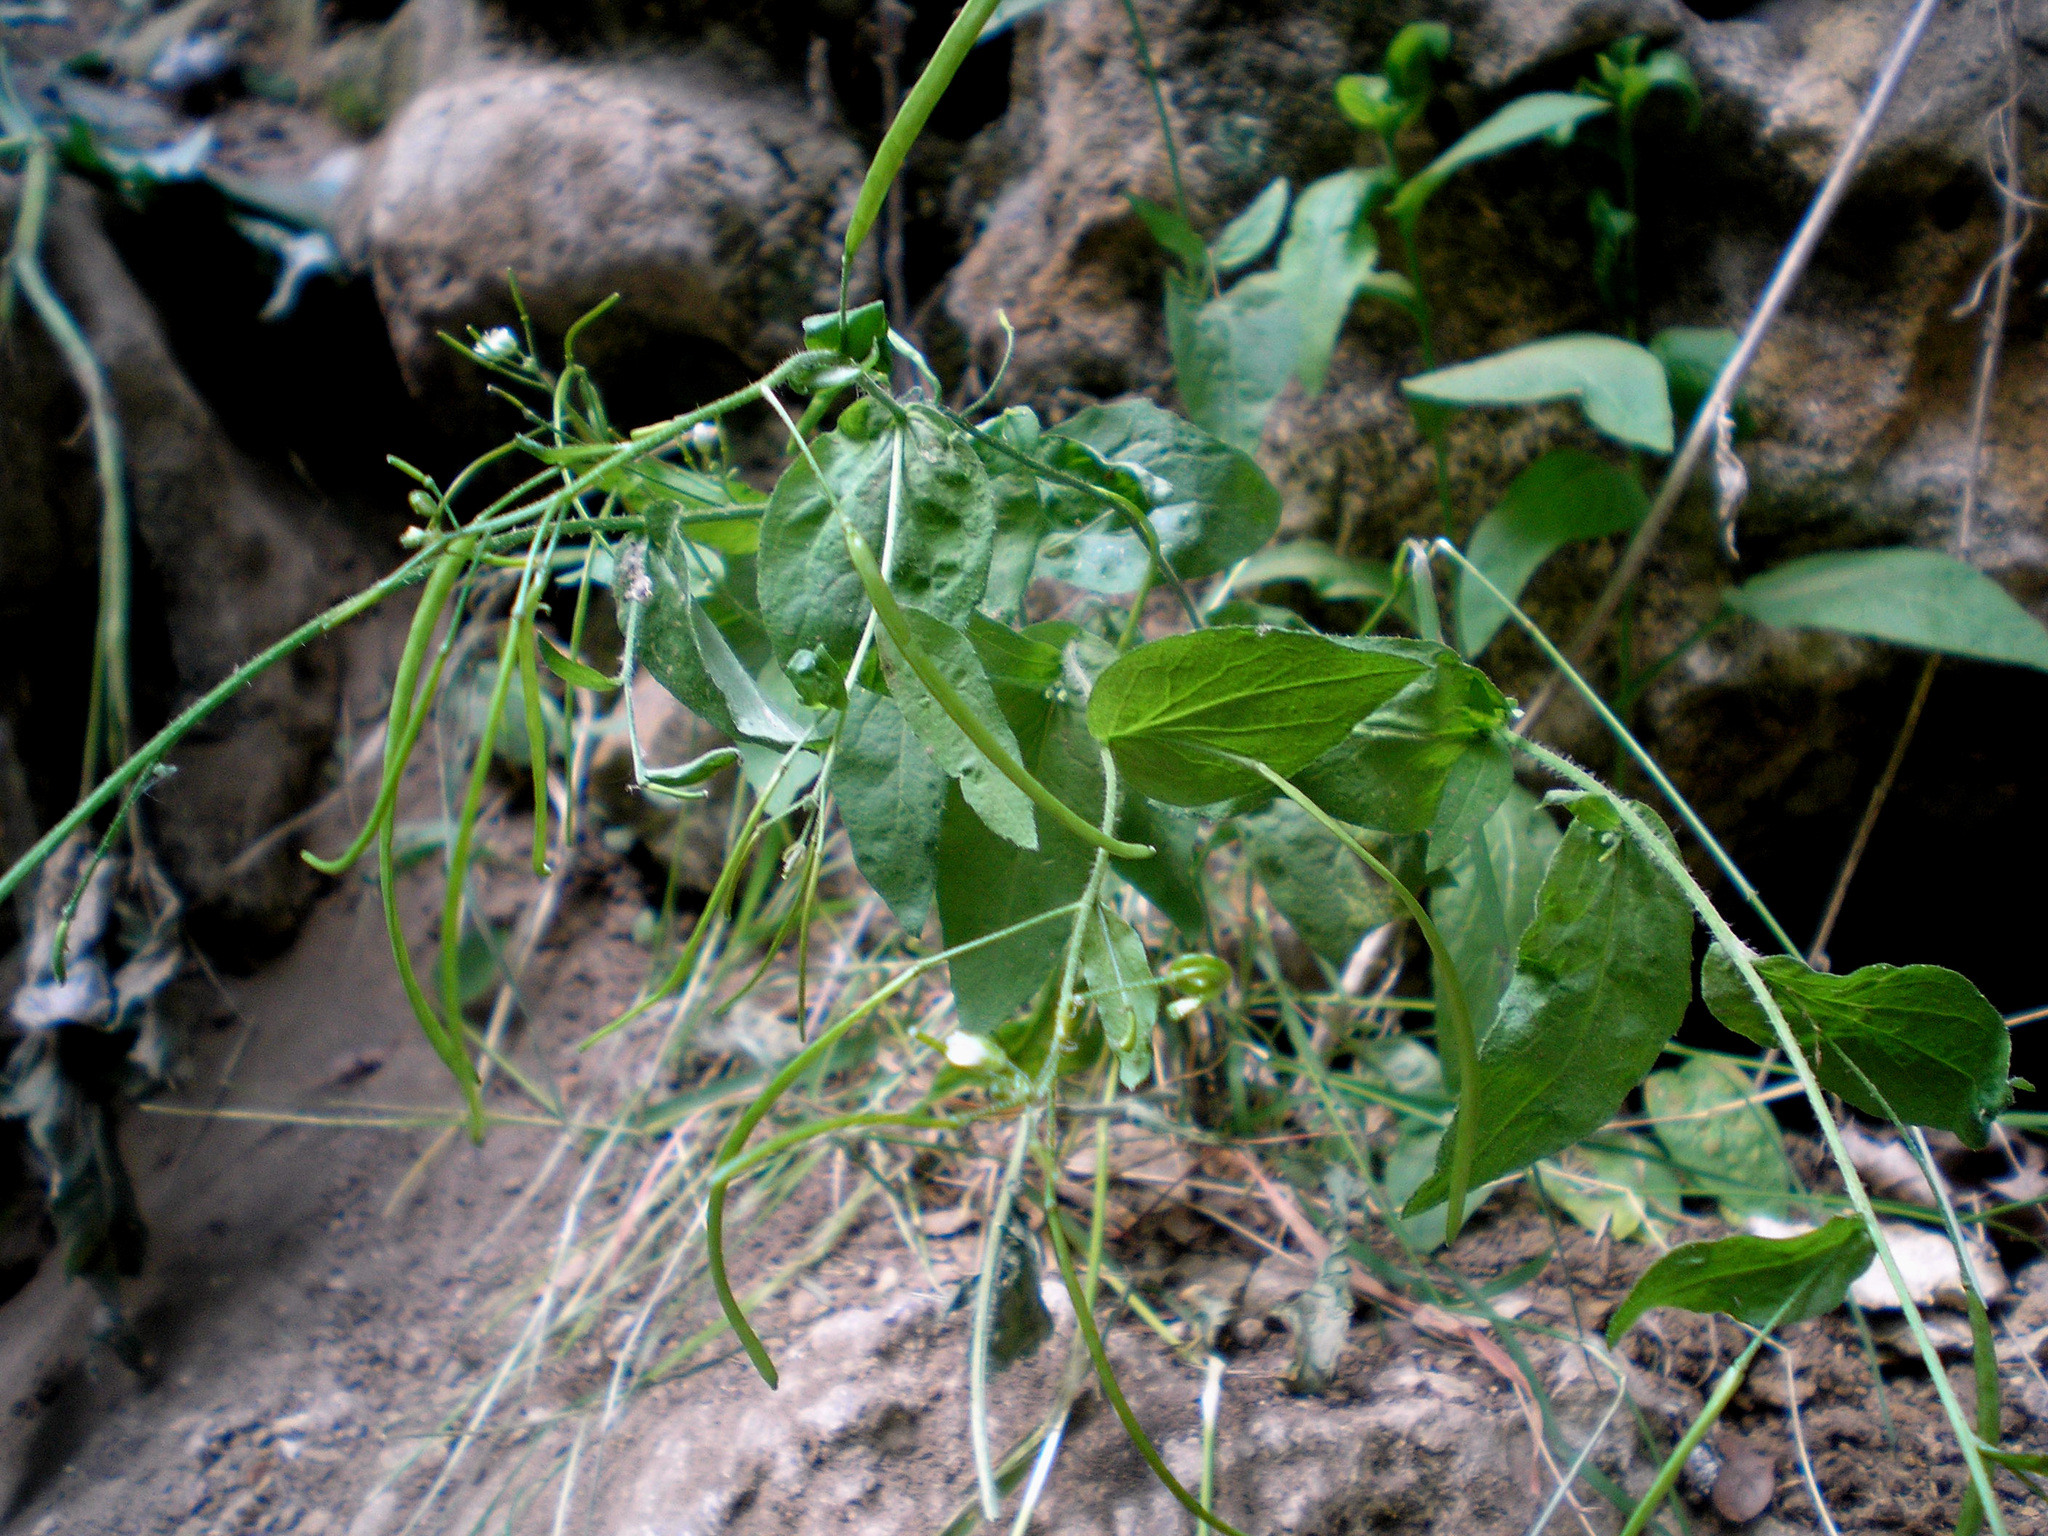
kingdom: Plantae
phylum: Tracheophyta
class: Magnoliopsida
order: Brassicales
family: Brassicaceae
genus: Catolobus
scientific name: Catolobus pendulus
